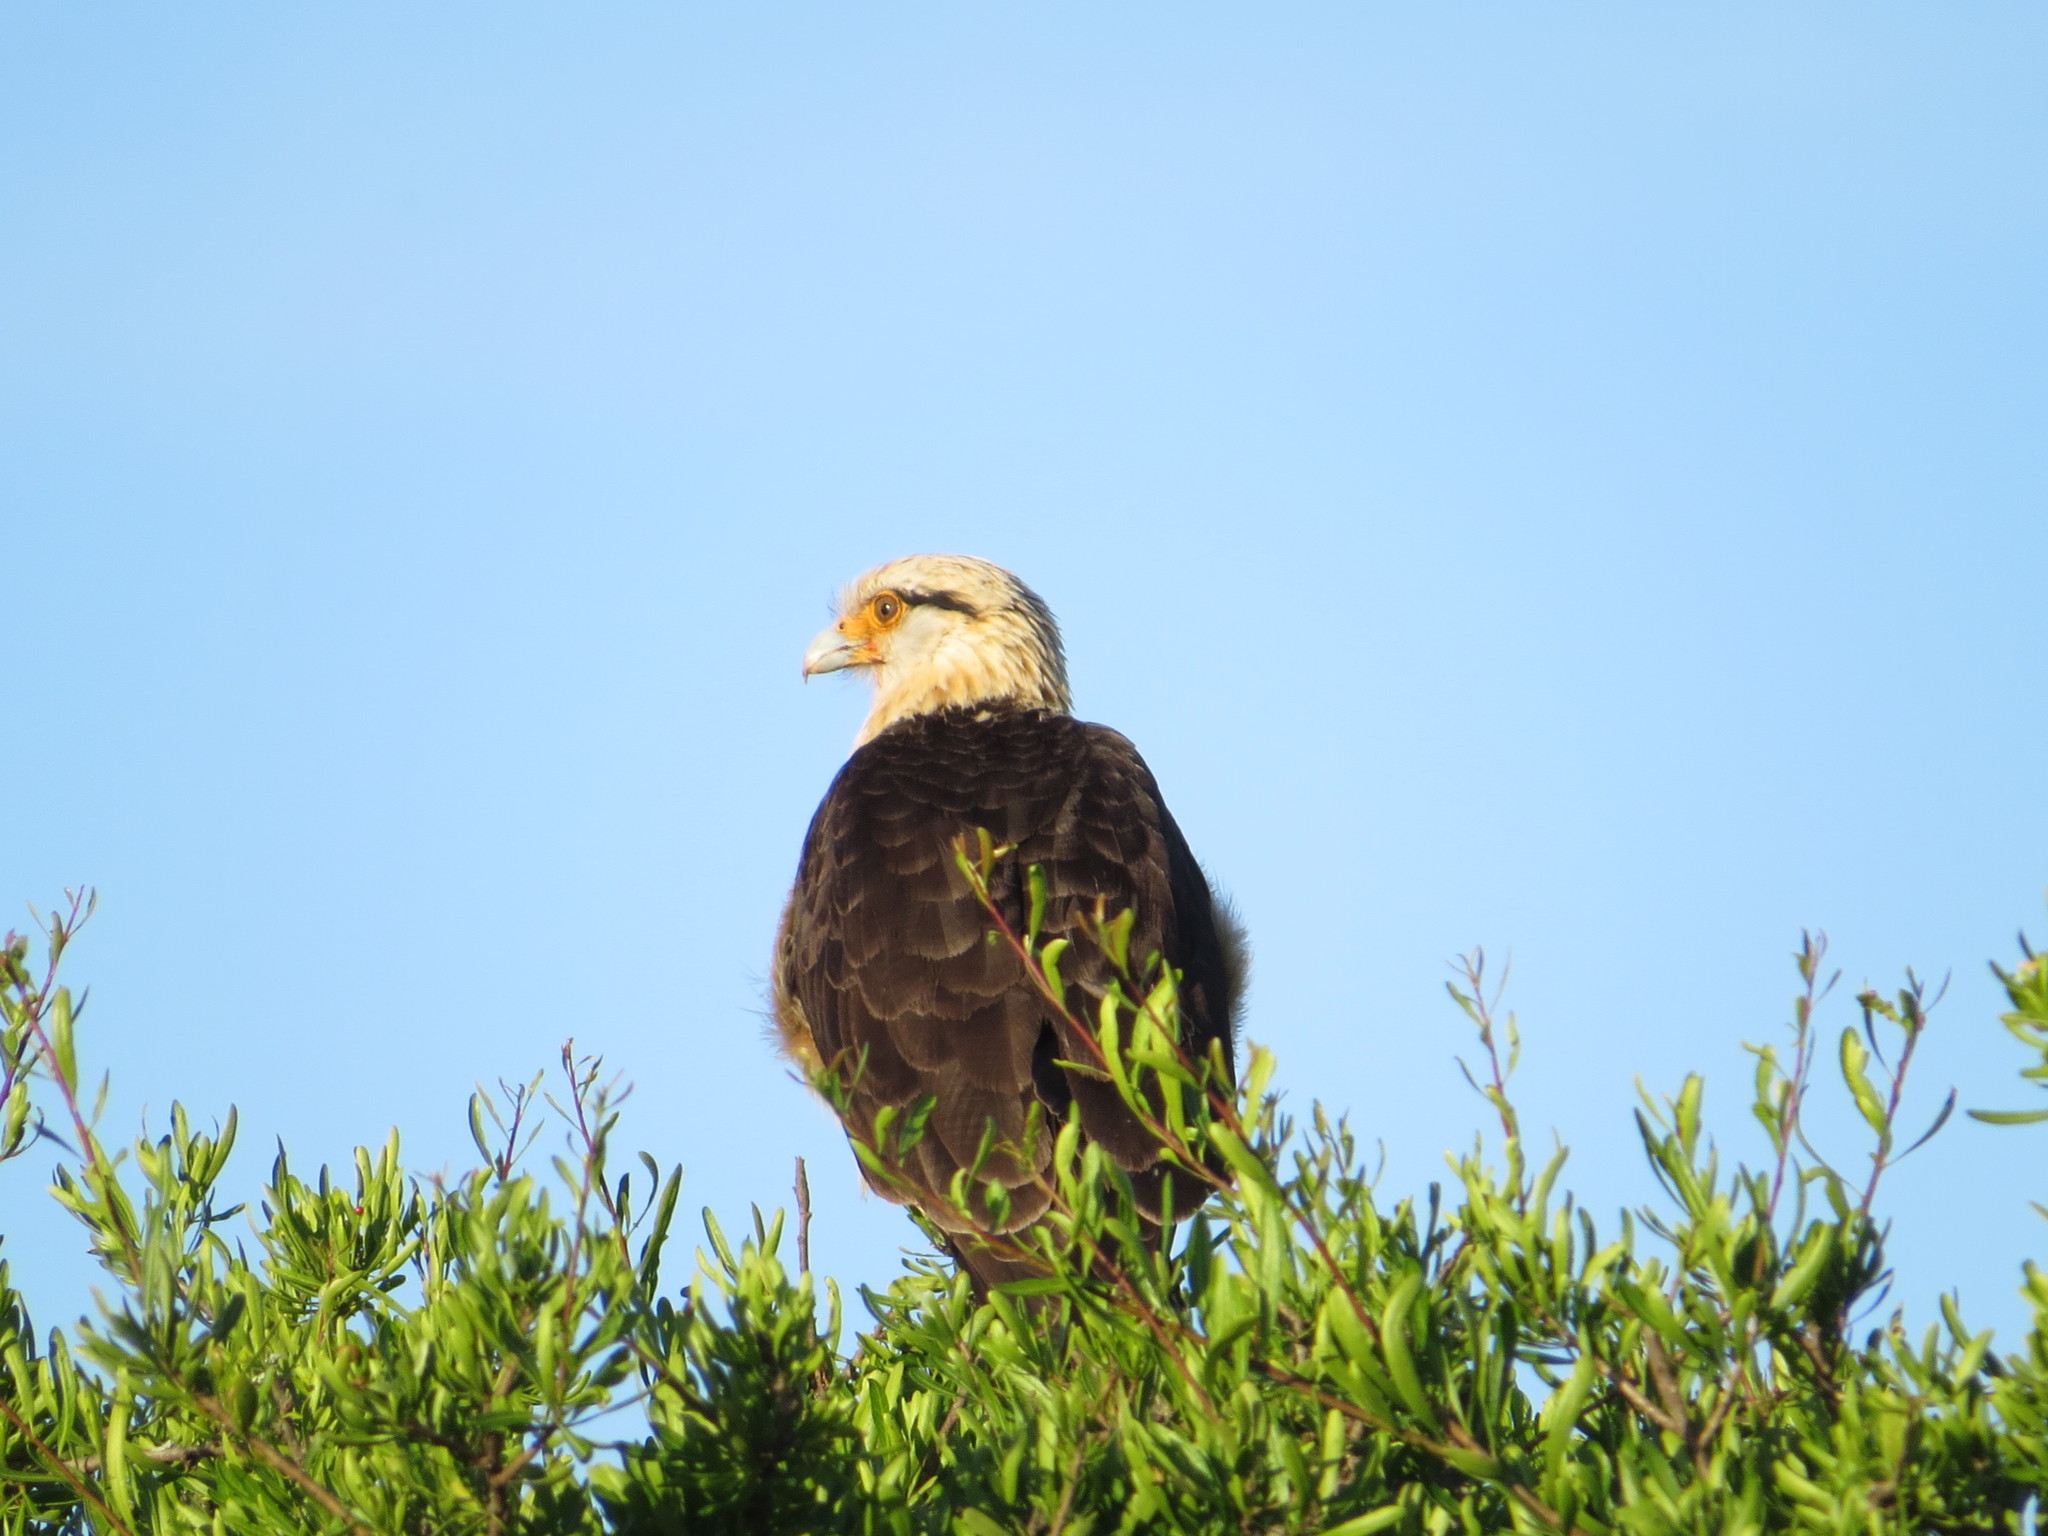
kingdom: Animalia
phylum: Chordata
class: Aves
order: Falconiformes
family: Falconidae
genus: Daptrius
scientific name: Daptrius
